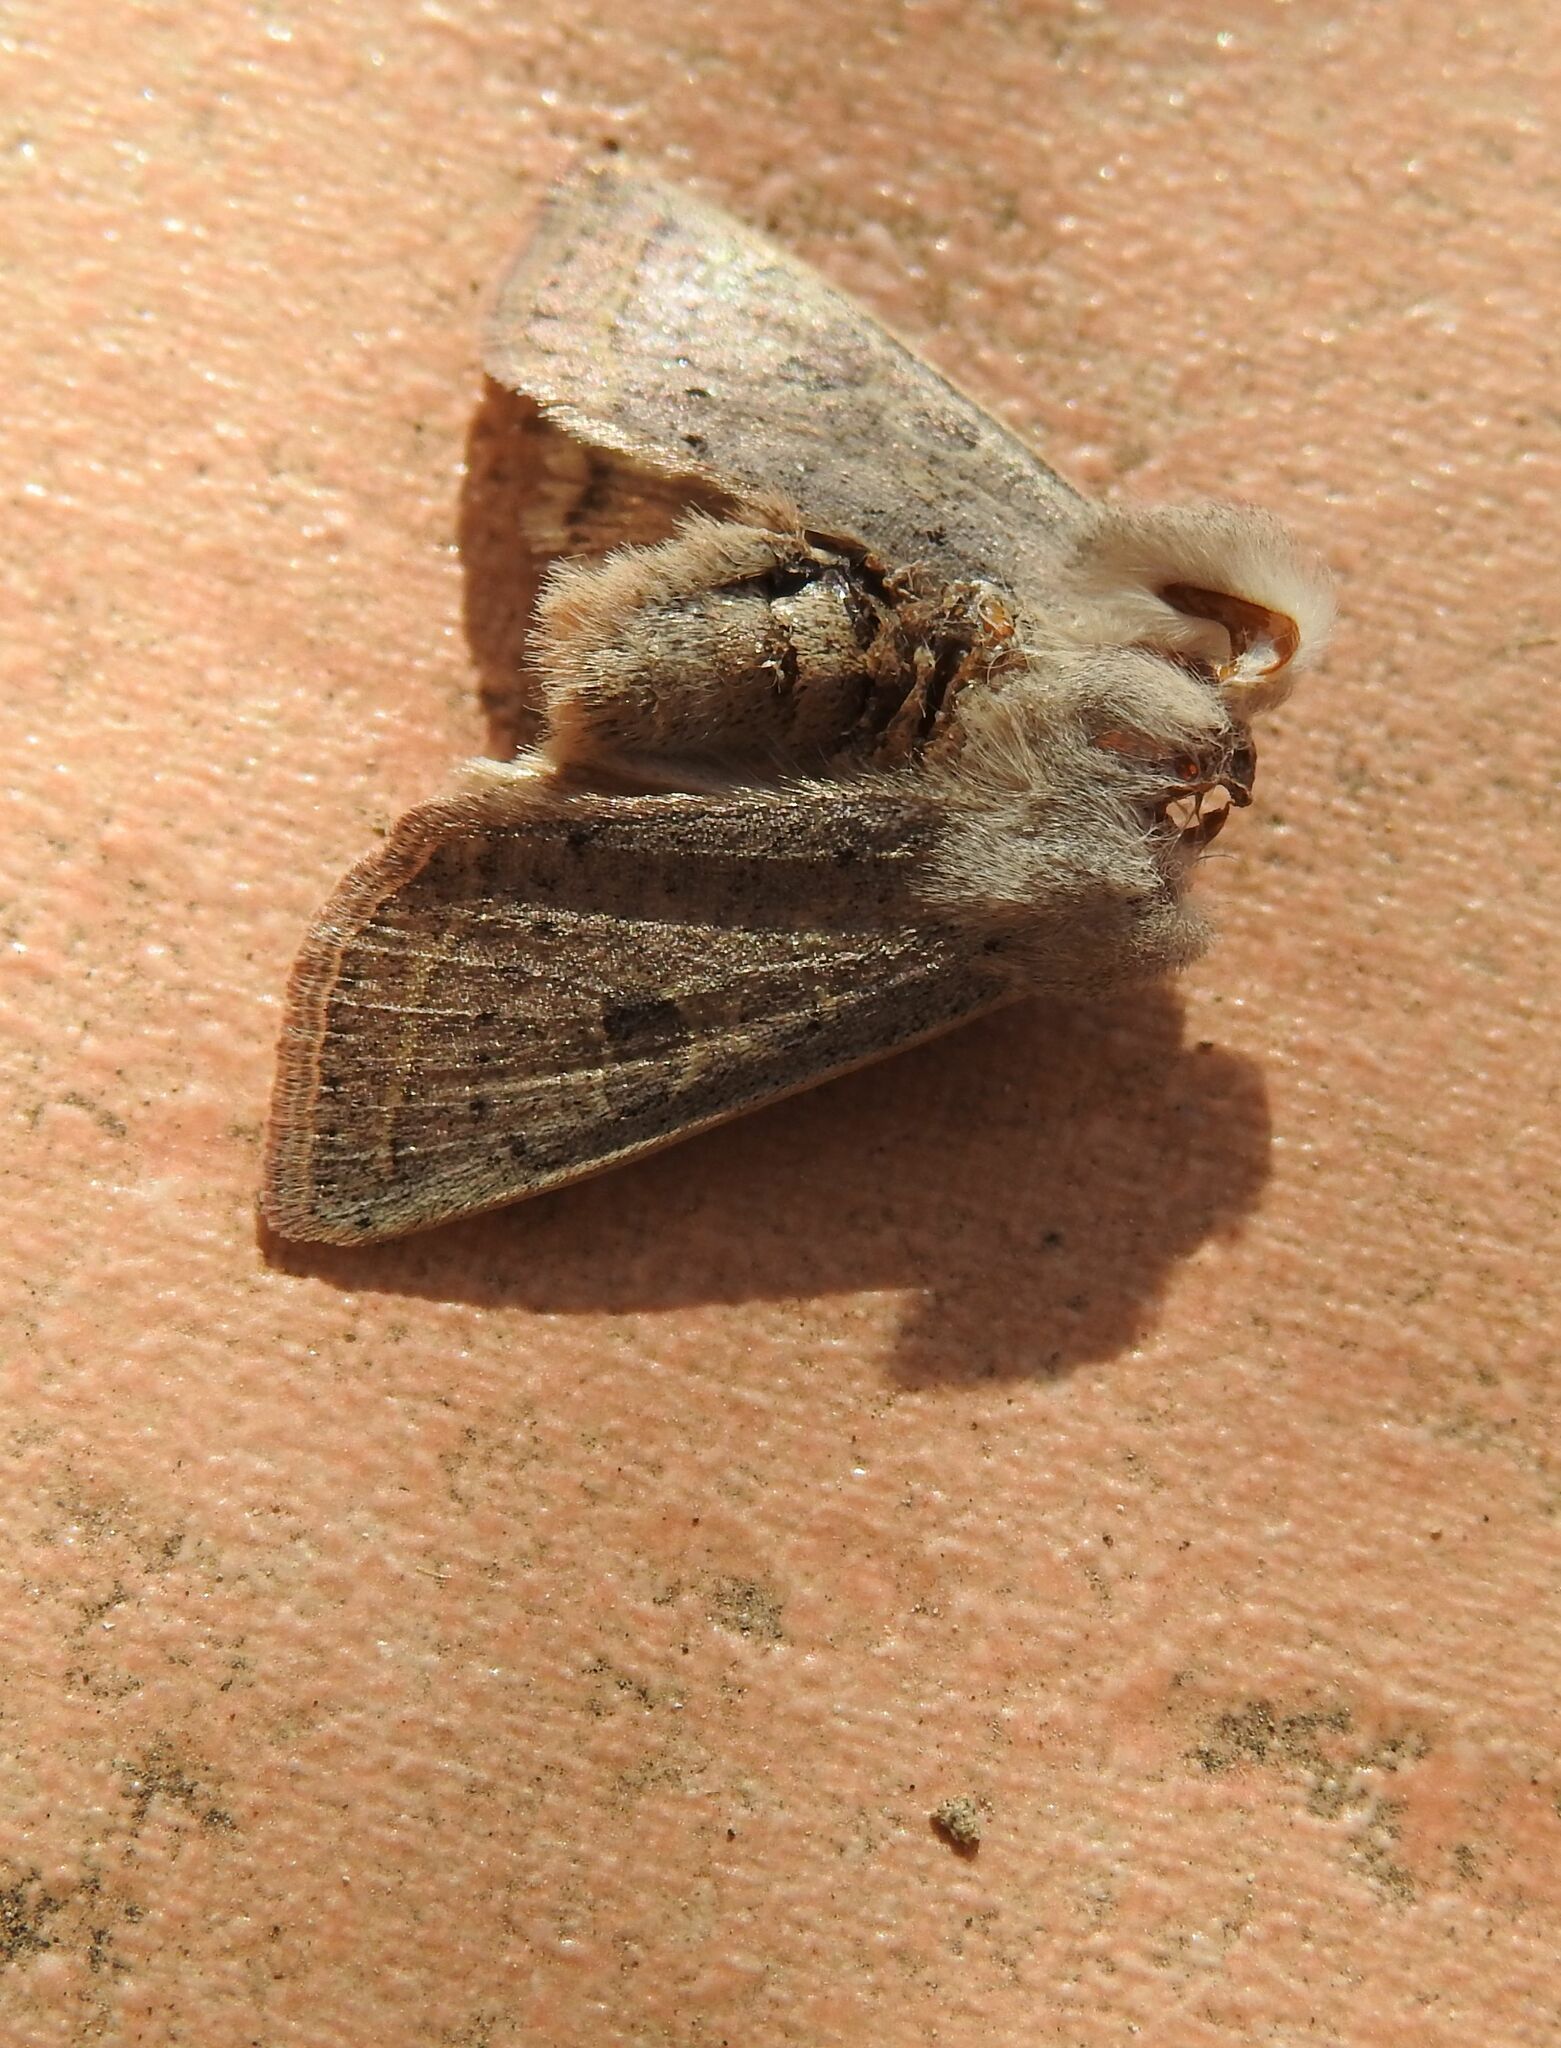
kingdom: Animalia
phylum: Arthropoda
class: Insecta
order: Lepidoptera
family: Noctuidae
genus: Orthosia
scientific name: Orthosia gracilis
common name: Powdered quaker
